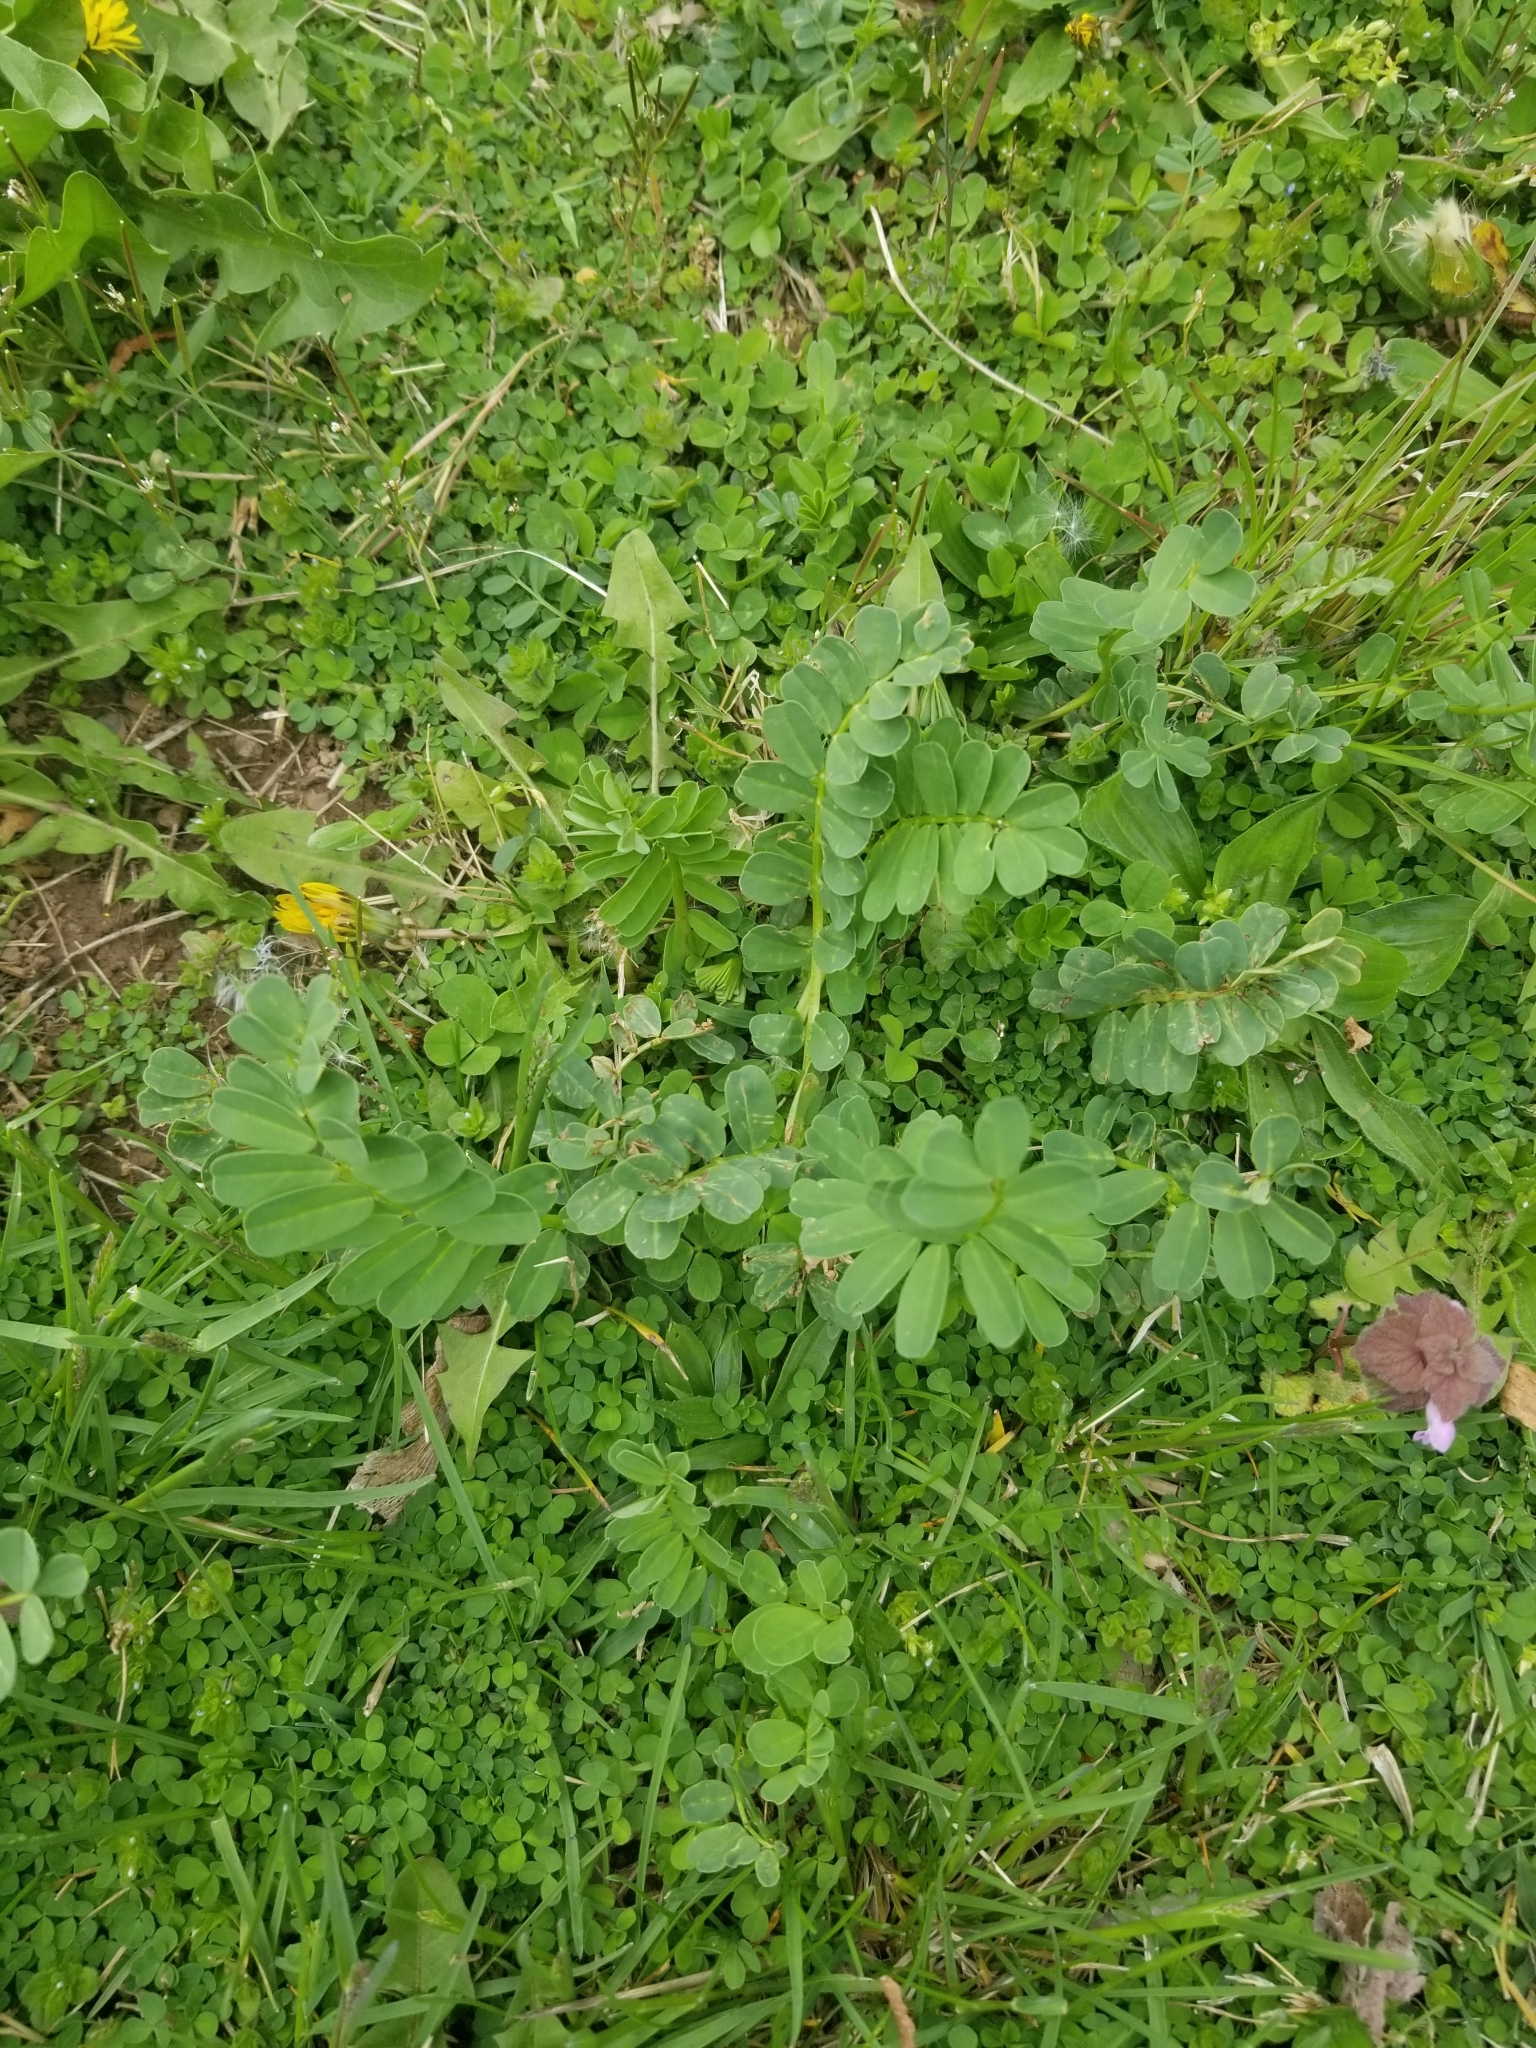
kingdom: Plantae
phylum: Tracheophyta
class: Magnoliopsida
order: Fabales
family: Fabaceae
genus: Coronilla
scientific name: Coronilla varia
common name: Crownvetch
